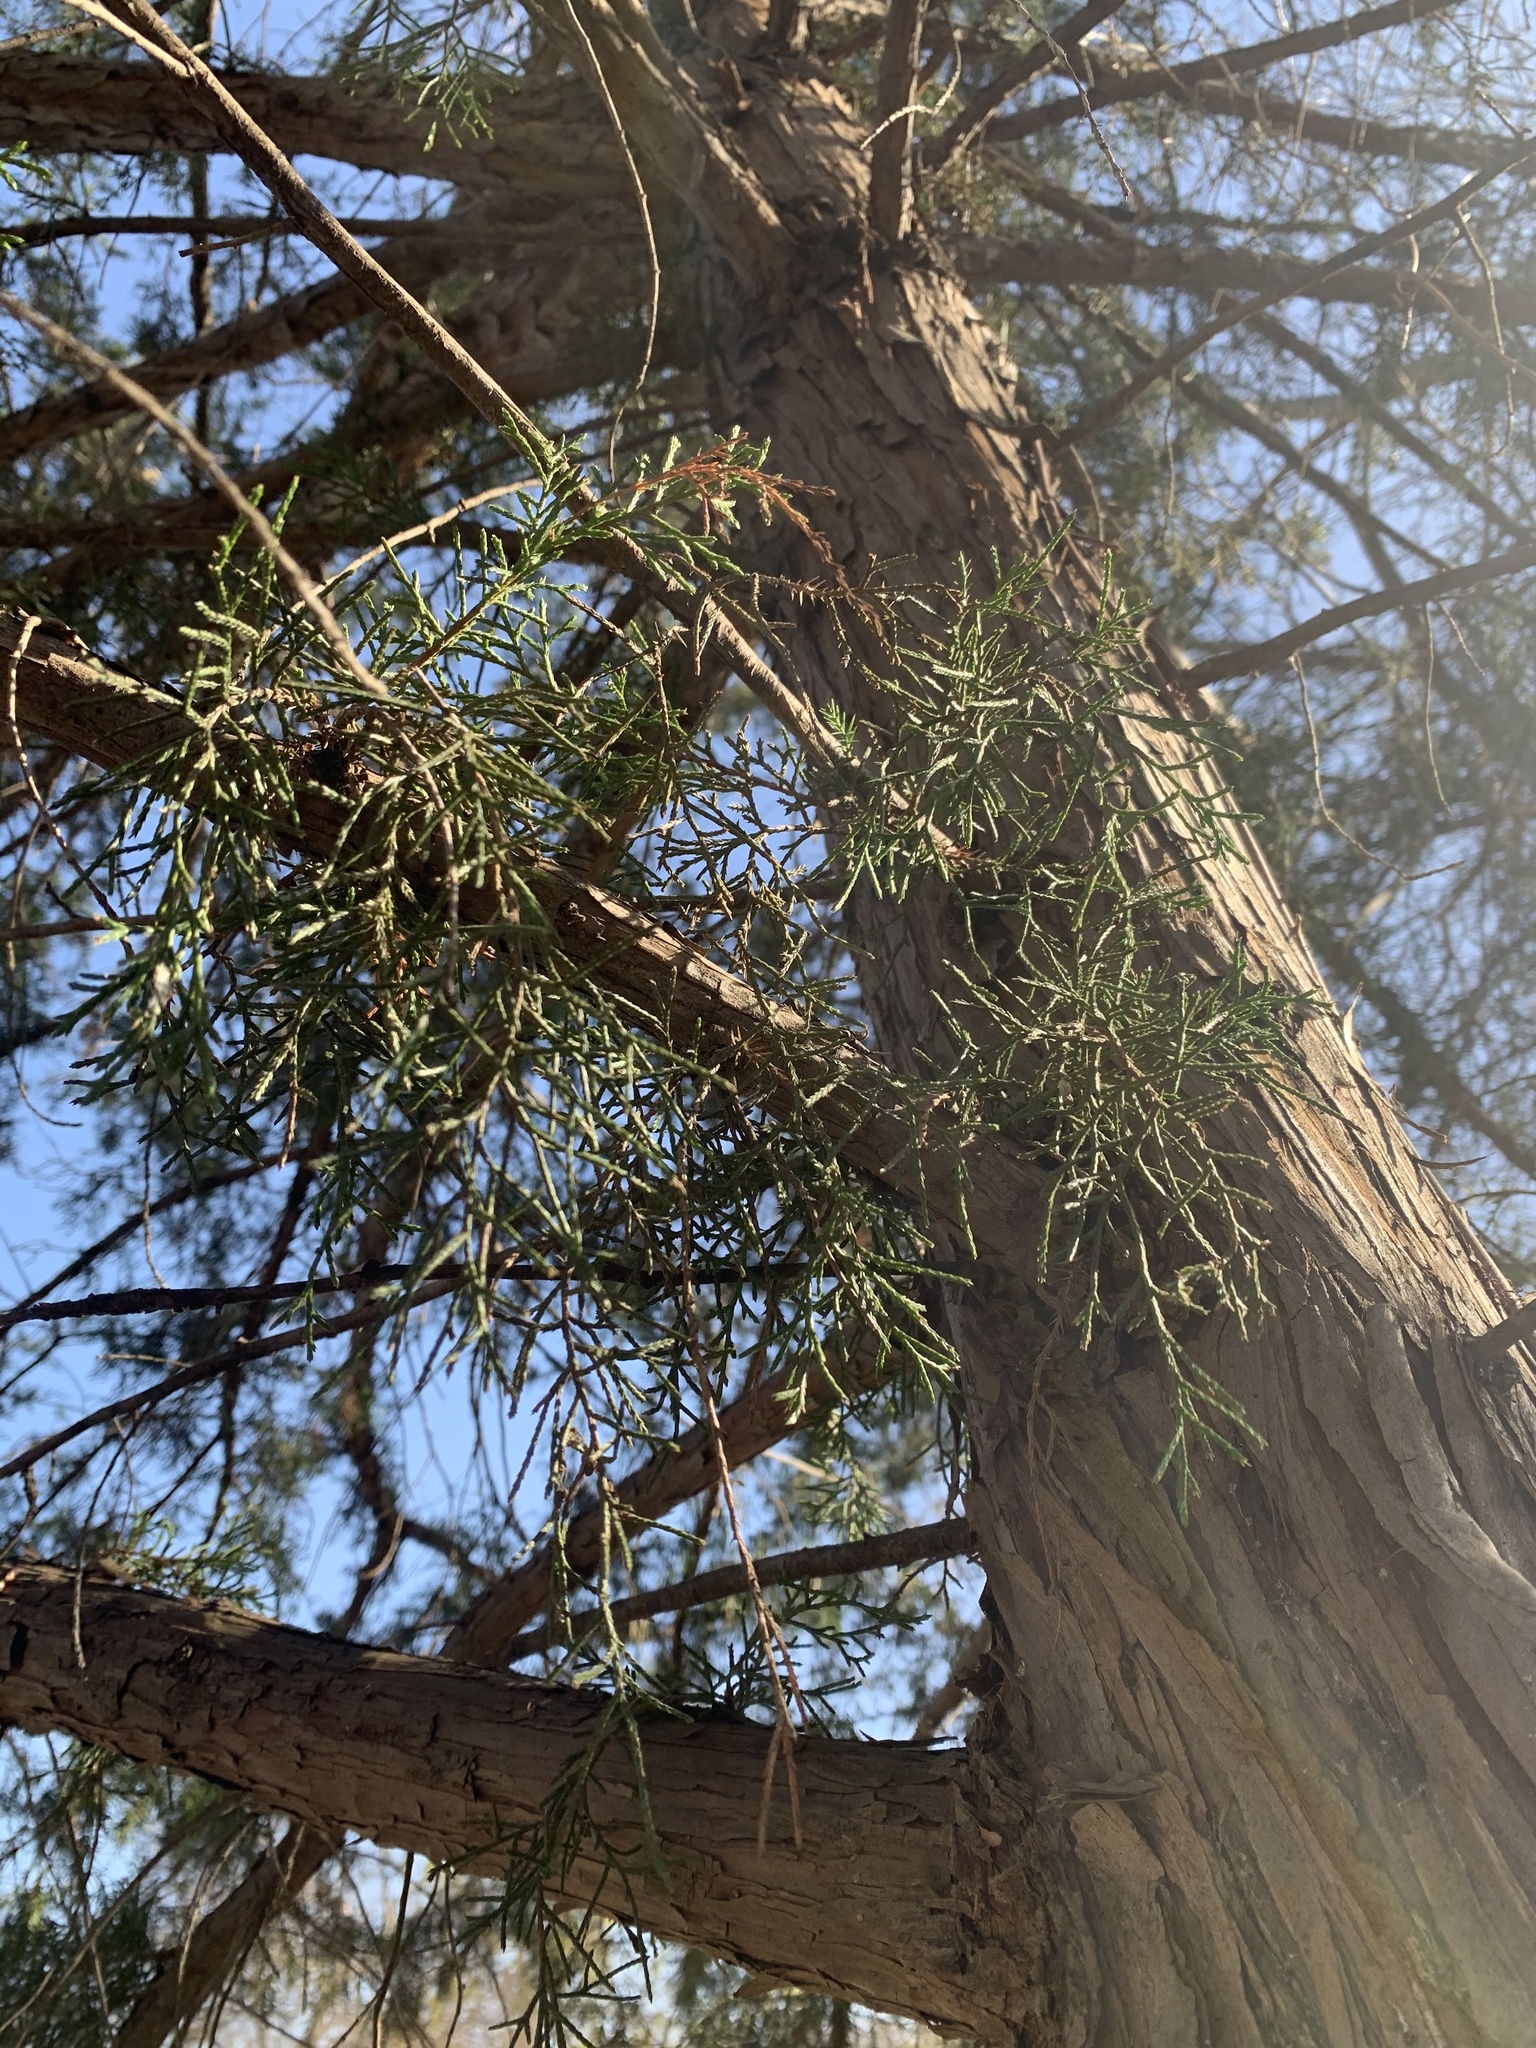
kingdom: Plantae
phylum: Tracheophyta
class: Pinopsida
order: Pinales
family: Cupressaceae
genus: Juniperus
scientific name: Juniperus virginiana
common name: Red juniper
